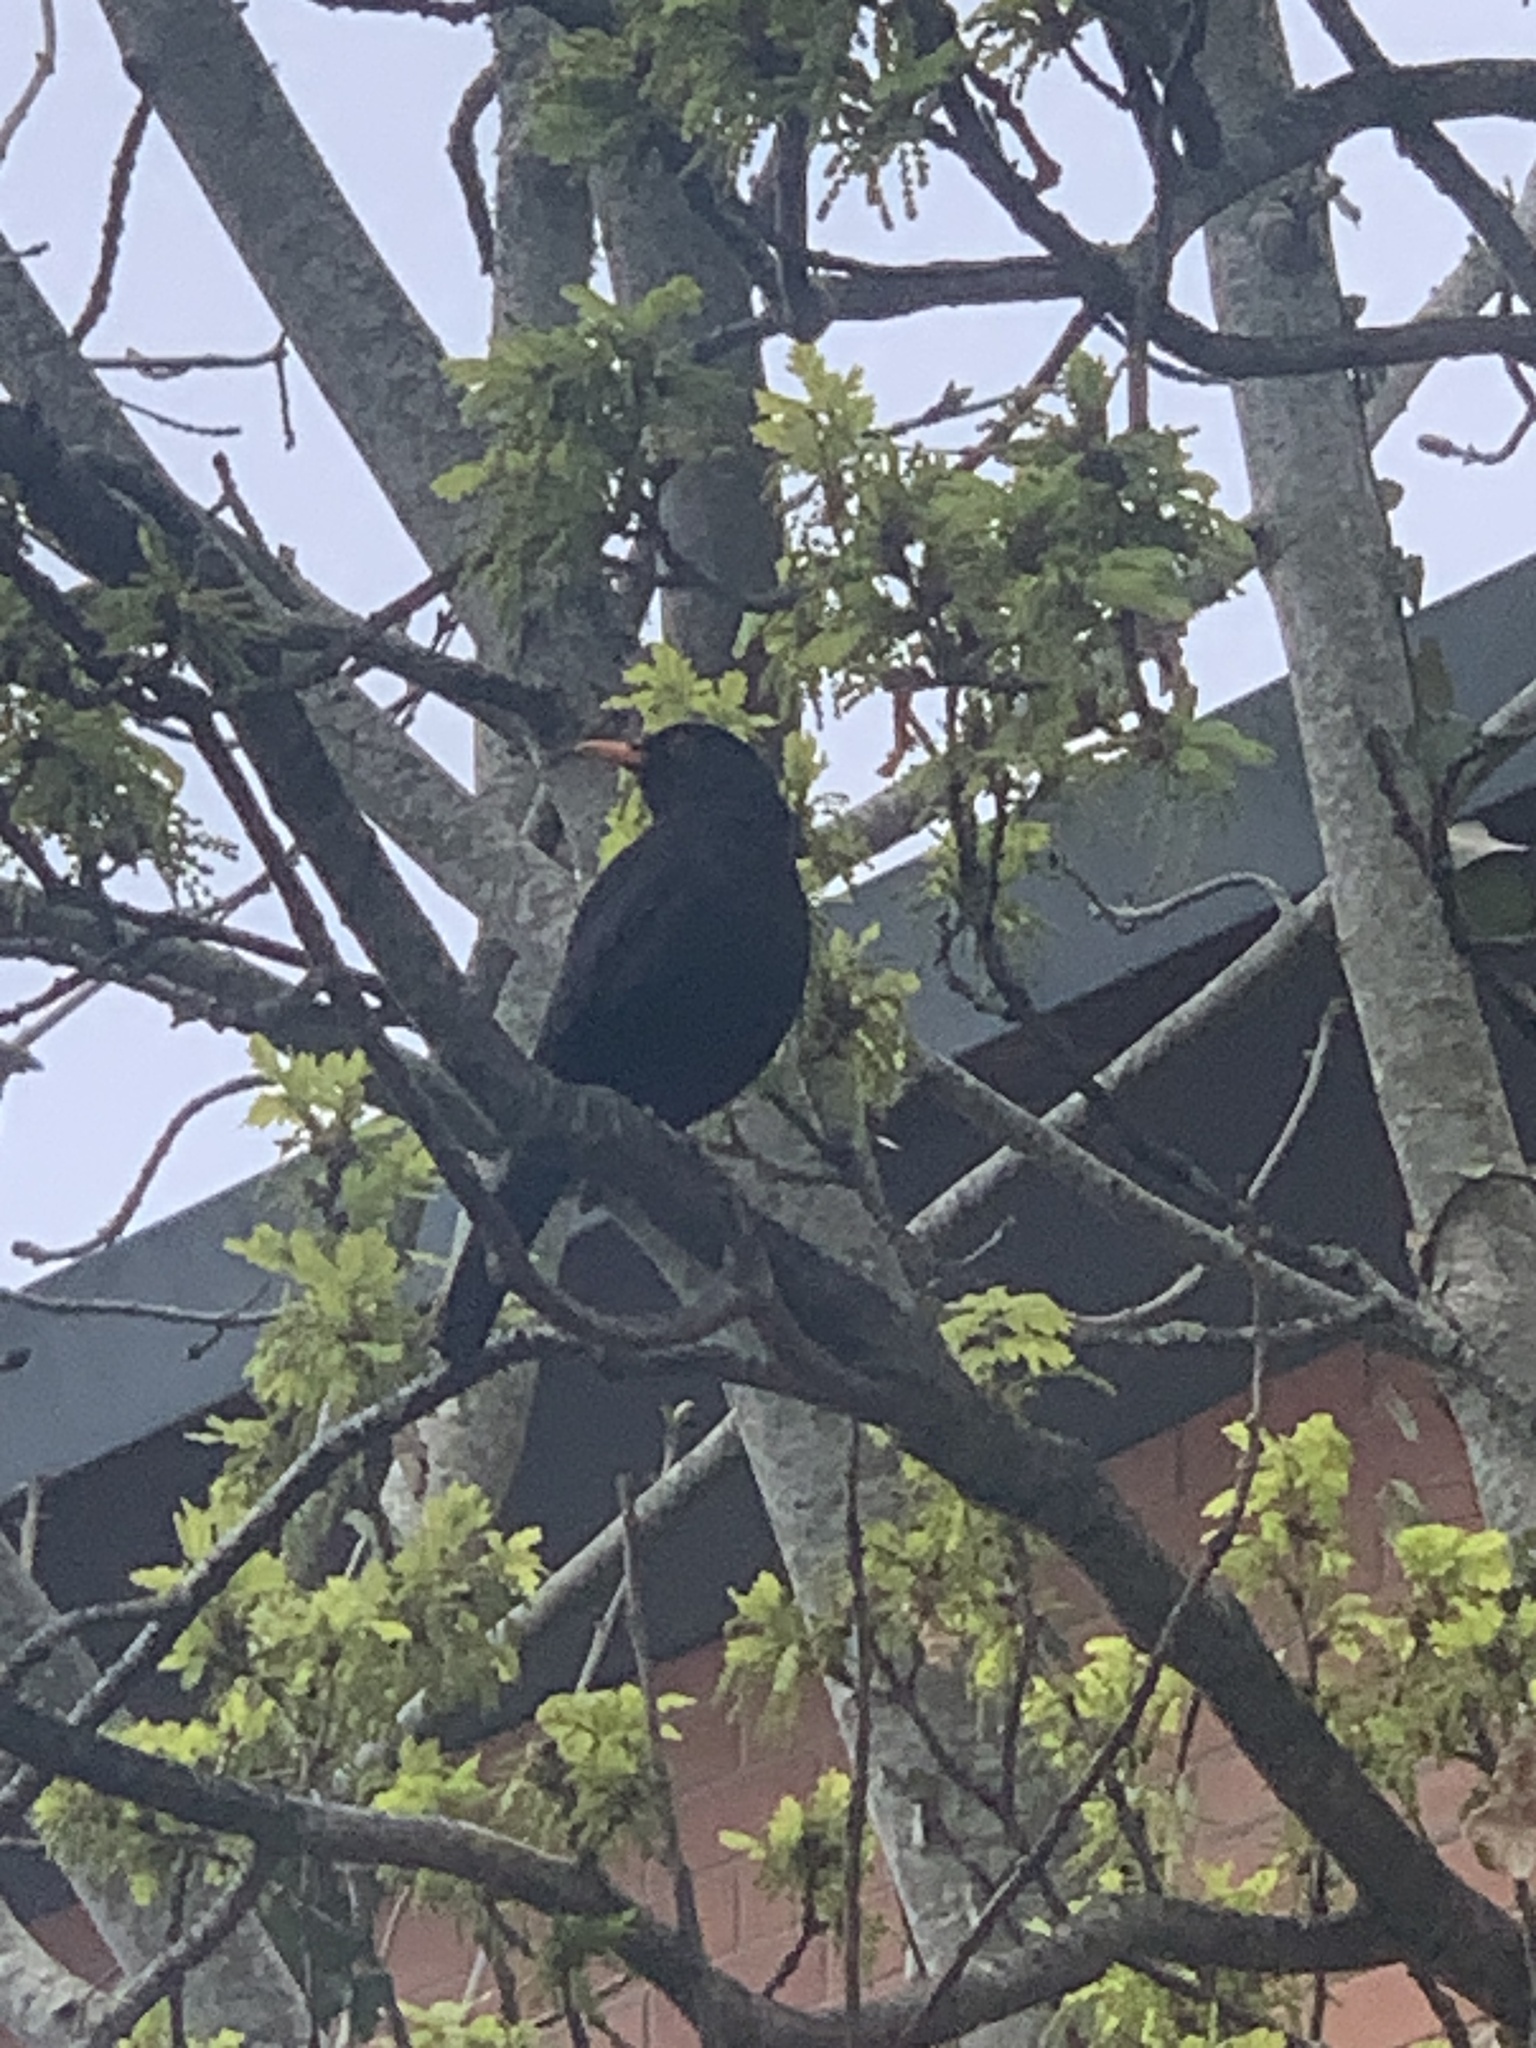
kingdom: Animalia
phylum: Chordata
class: Aves
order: Passeriformes
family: Turdidae
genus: Turdus
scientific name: Turdus merula
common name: Common blackbird
